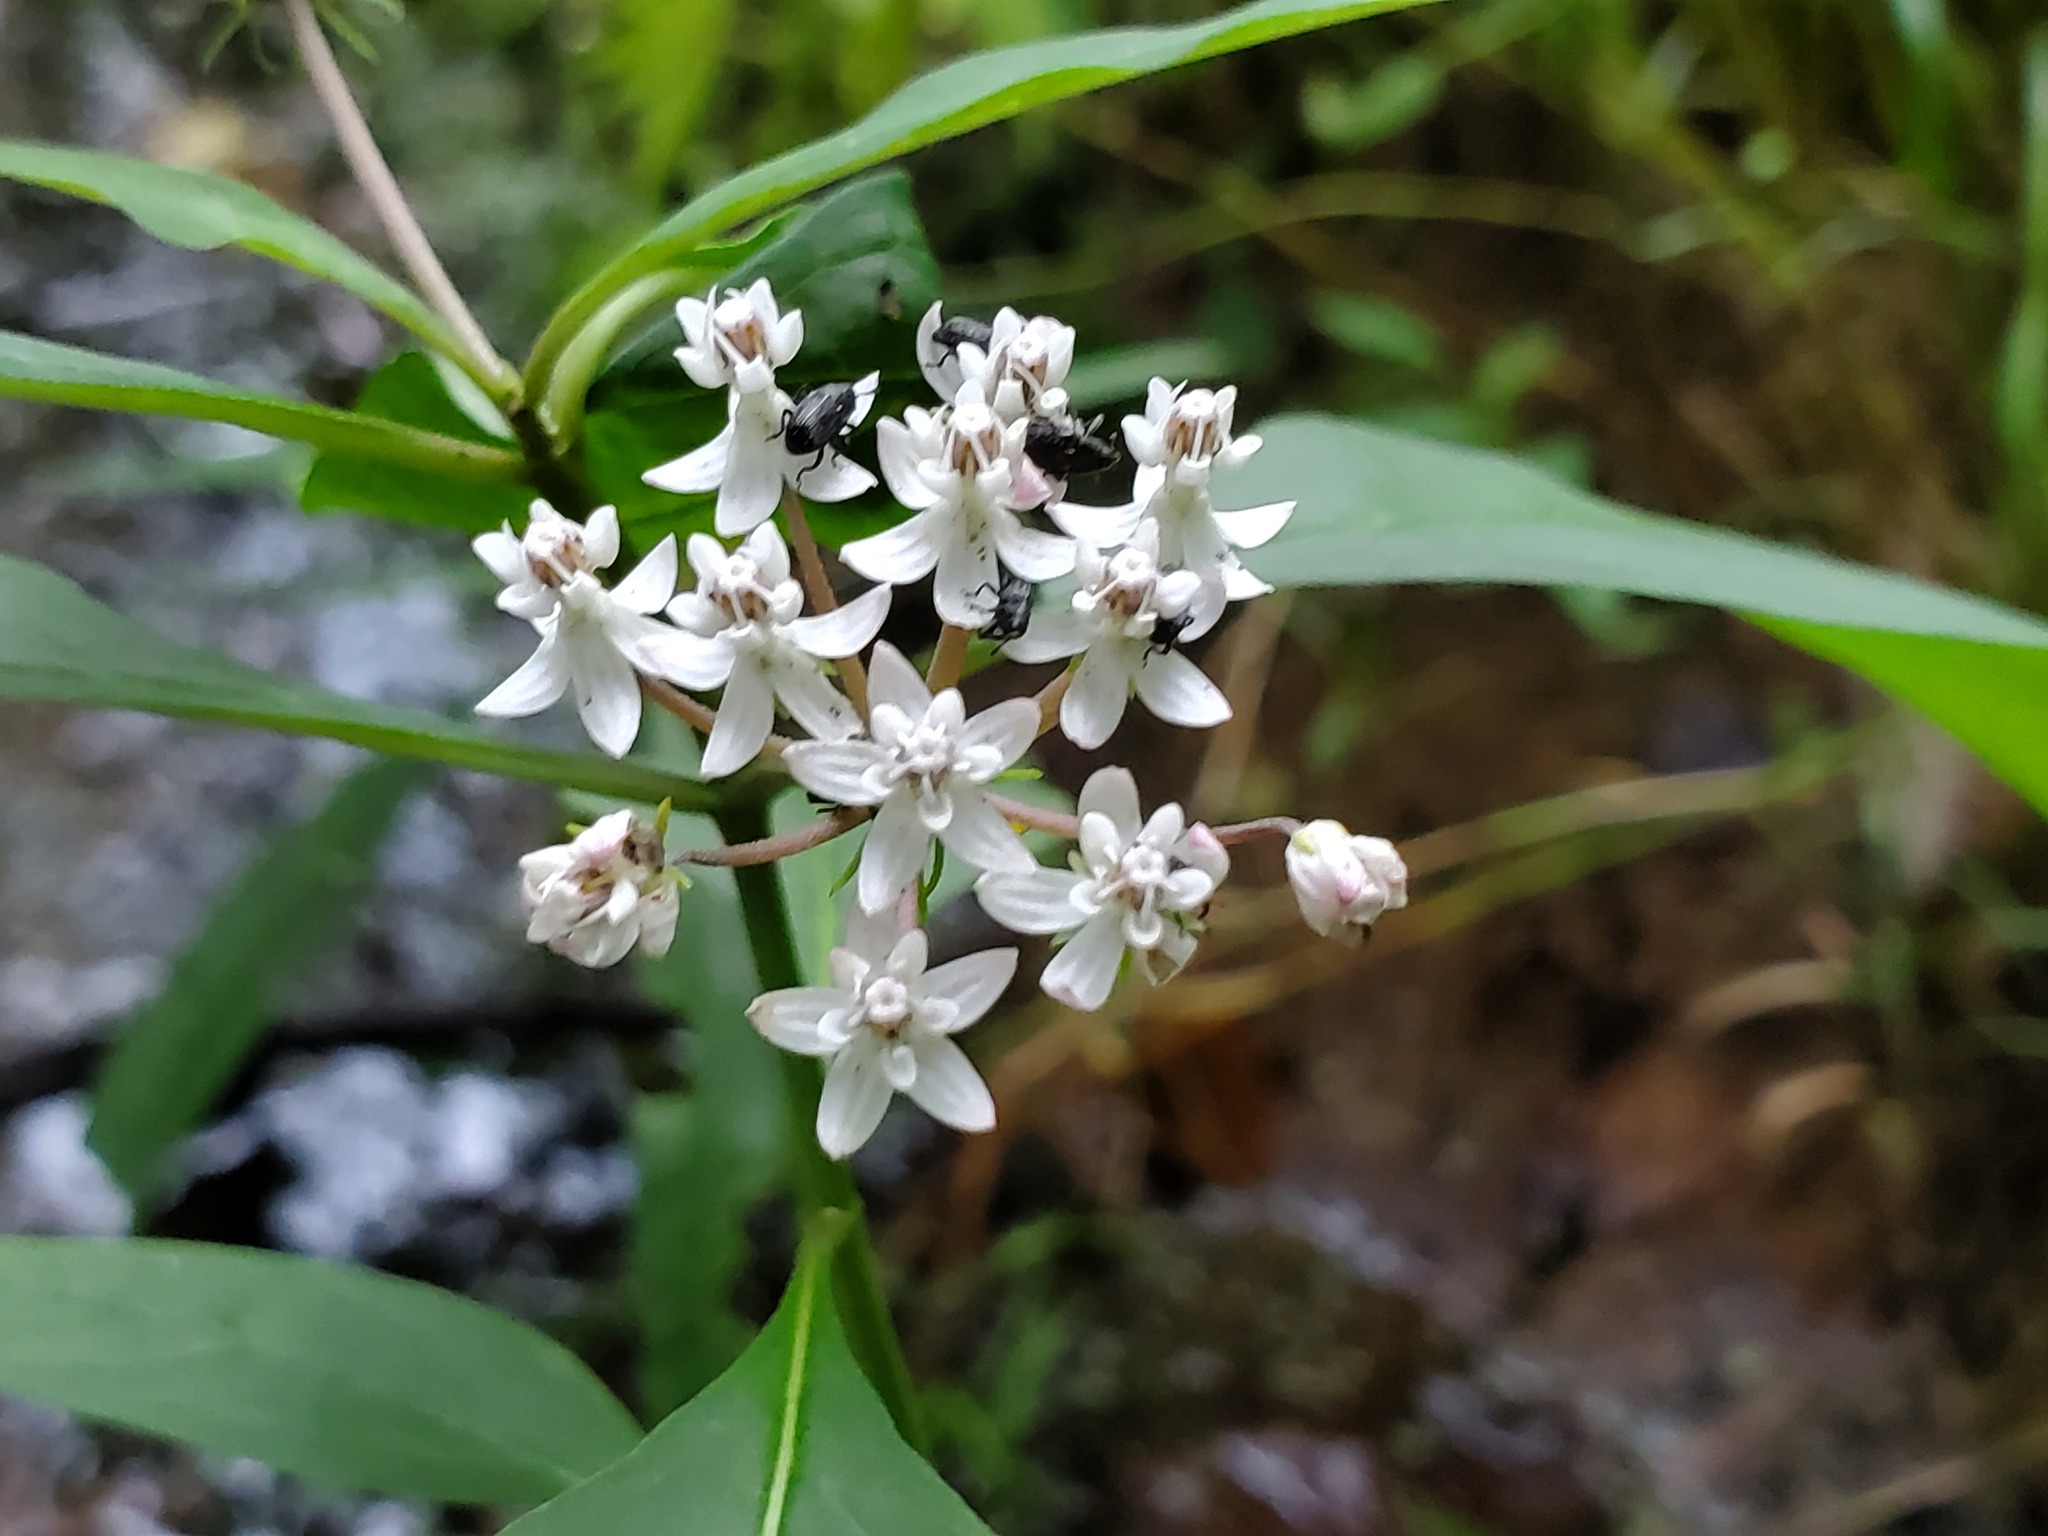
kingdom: Plantae
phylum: Tracheophyta
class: Magnoliopsida
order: Gentianales
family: Apocynaceae
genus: Asclepias
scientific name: Asclepias perennis
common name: Smooth-seed milkweed
